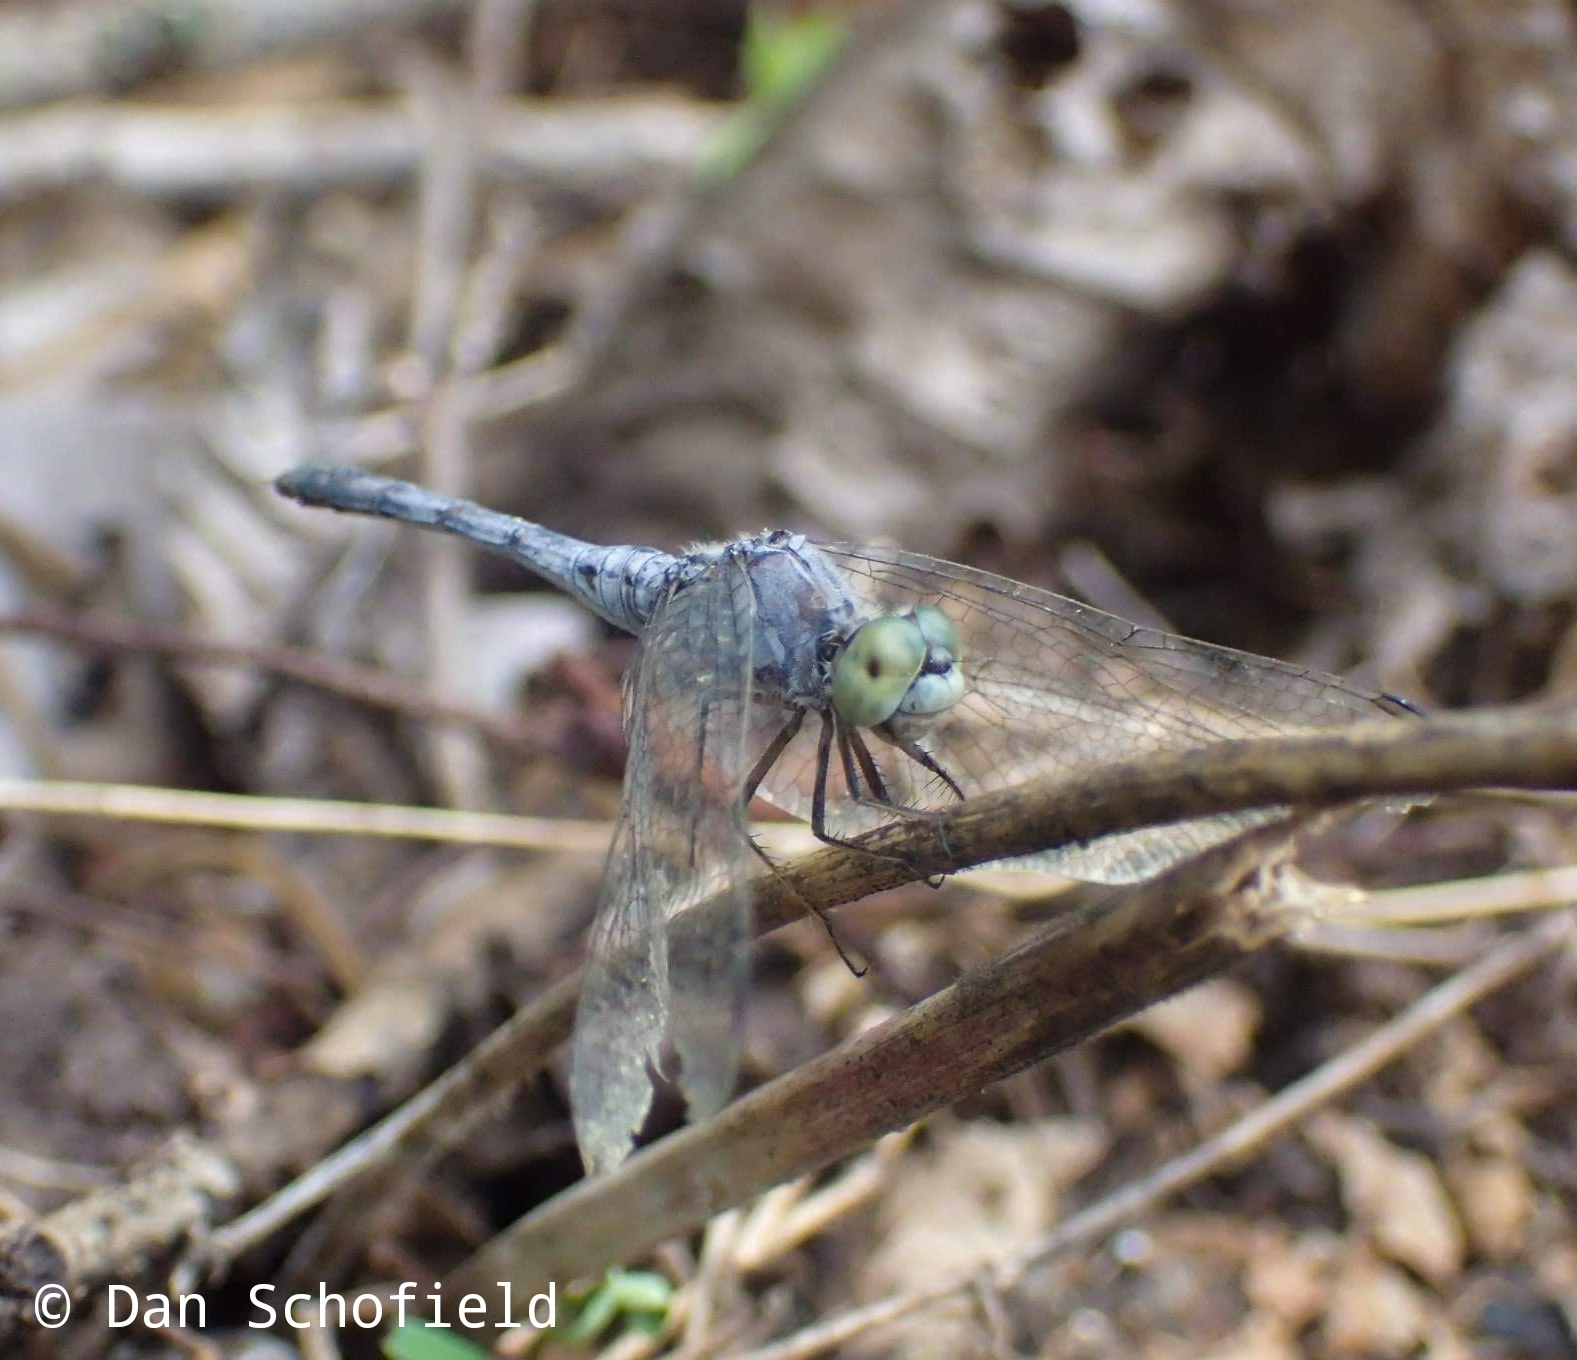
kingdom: Animalia
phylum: Arthropoda
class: Insecta
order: Odonata
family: Libellulidae
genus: Diplacodes
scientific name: Diplacodes trivialis
